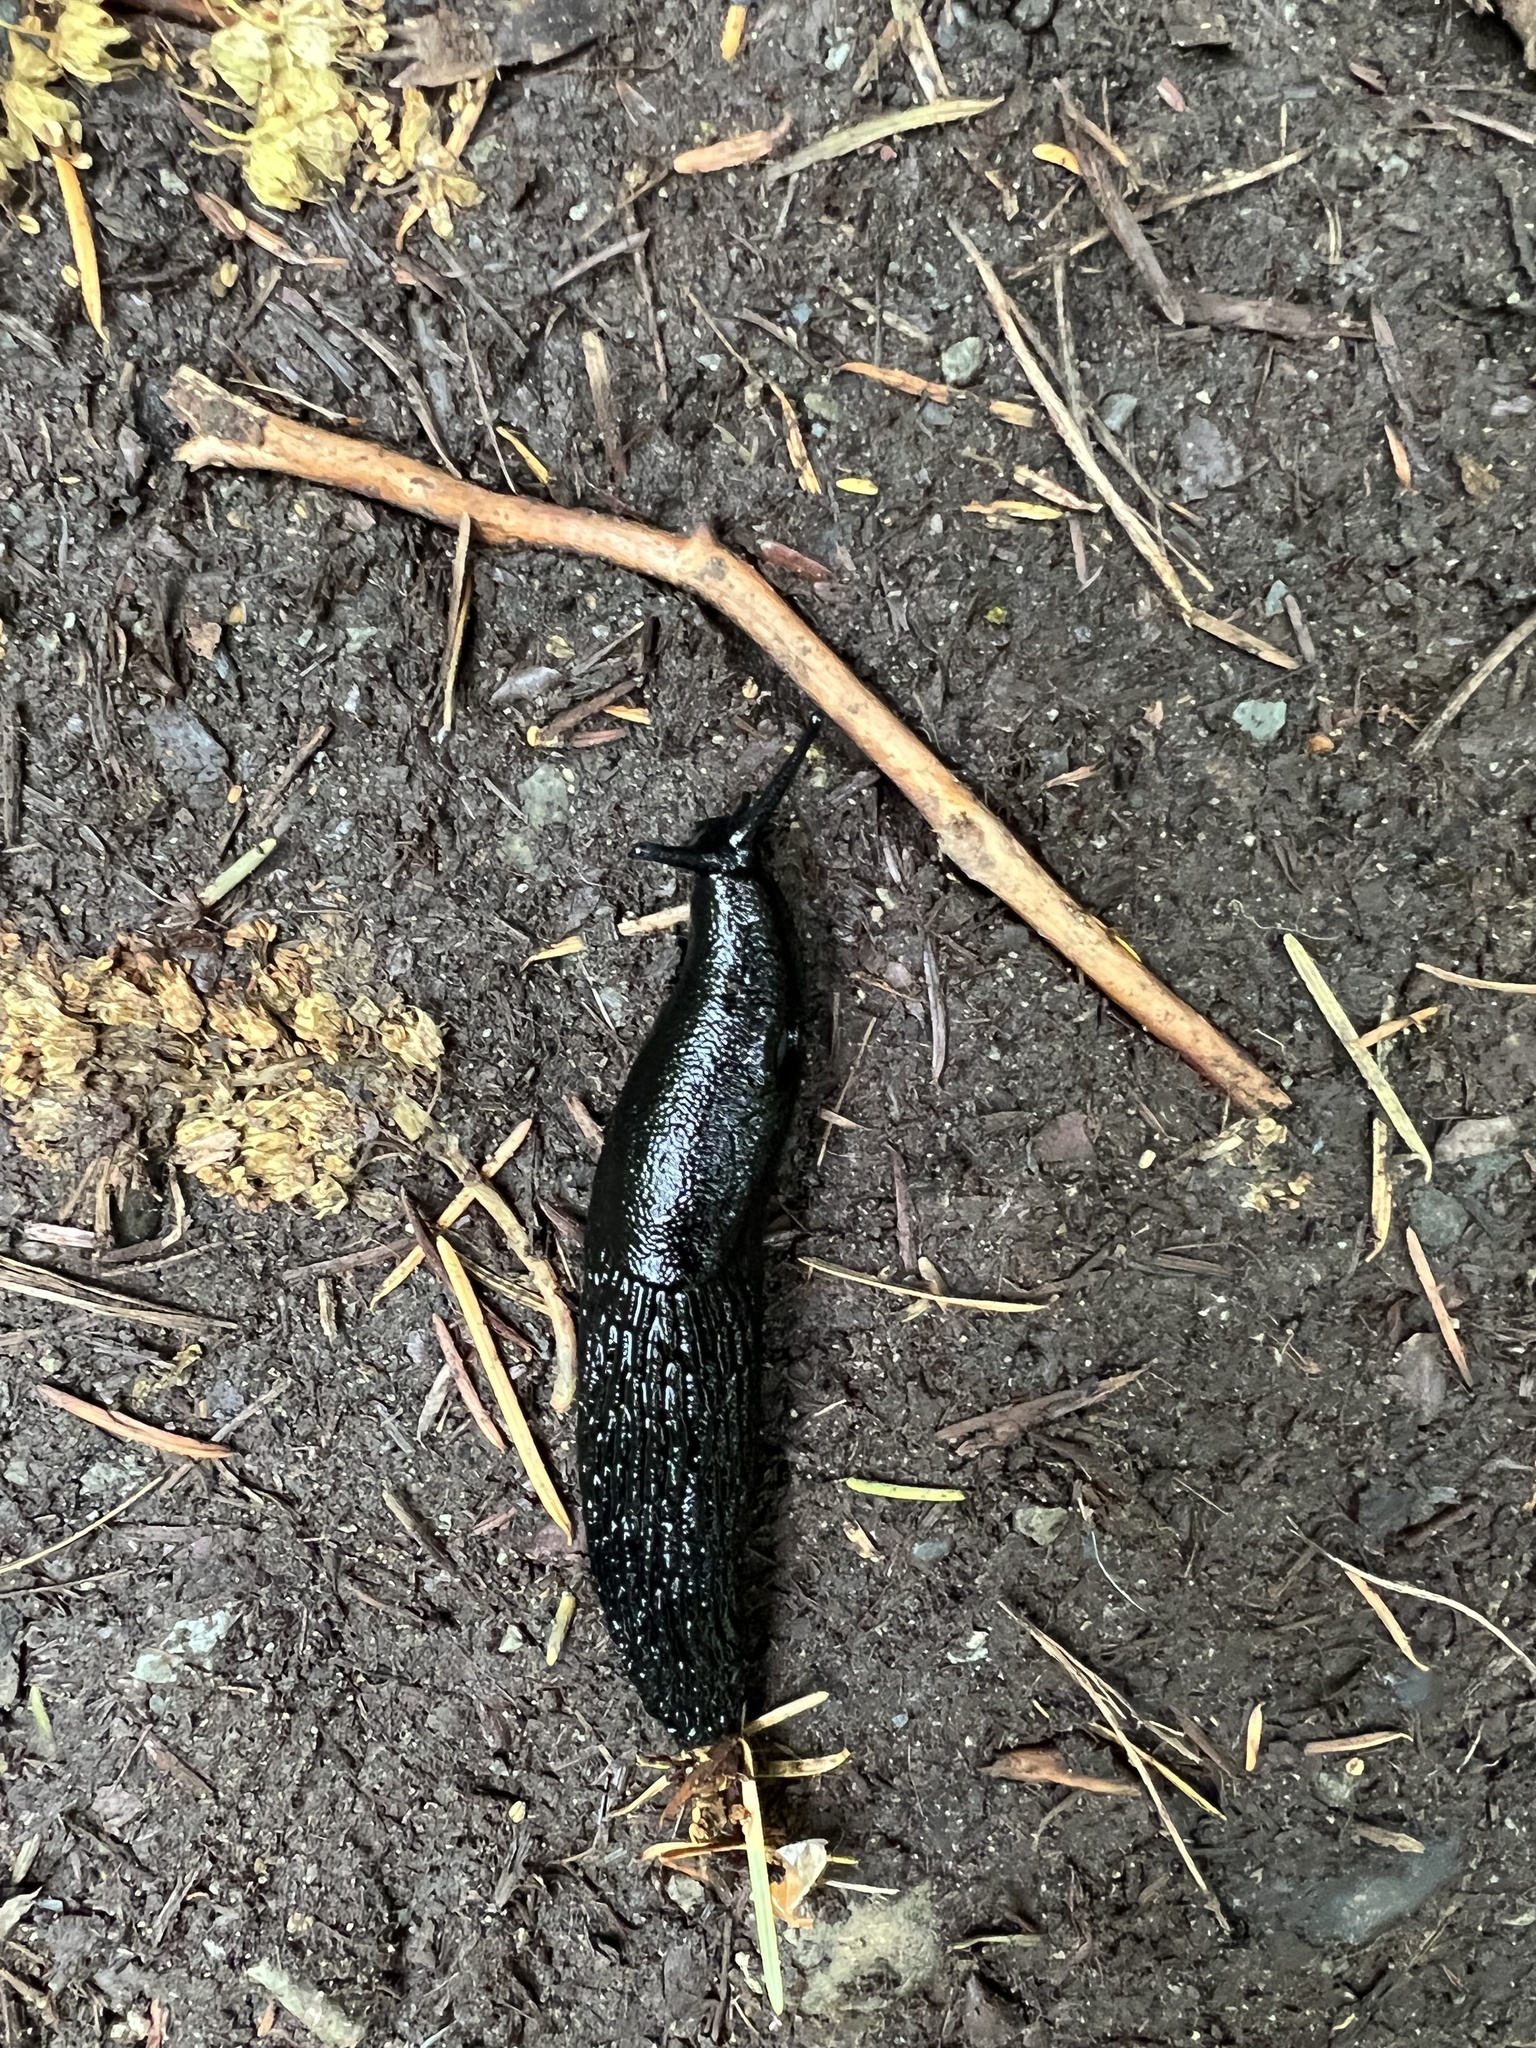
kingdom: Animalia
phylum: Mollusca
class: Gastropoda
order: Stylommatophora
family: Arionidae
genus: Arion
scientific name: Arion
